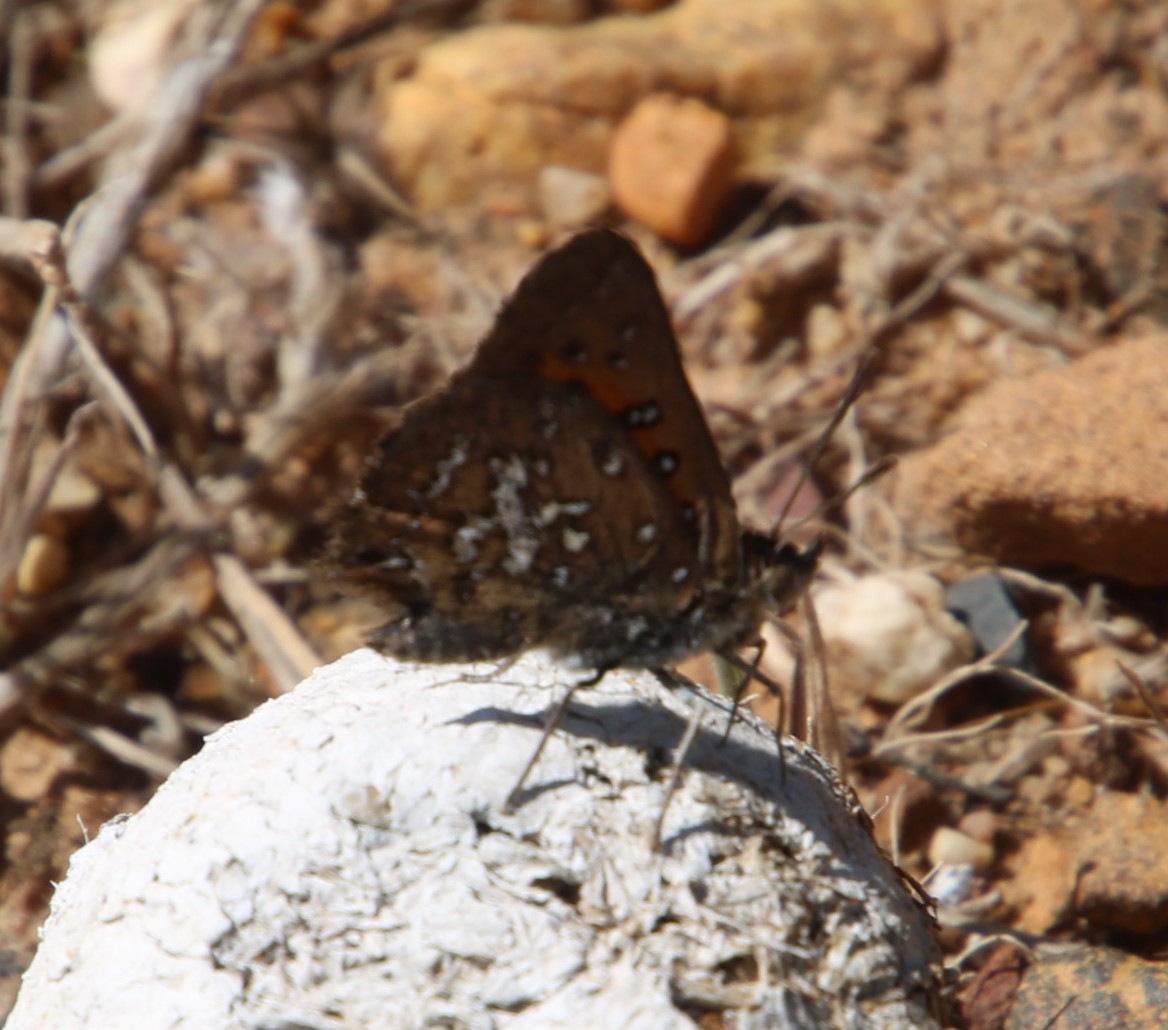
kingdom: Animalia
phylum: Arthropoda
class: Insecta
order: Lepidoptera
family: Lycaenidae
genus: Aloeides
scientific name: Aloeides thyra
